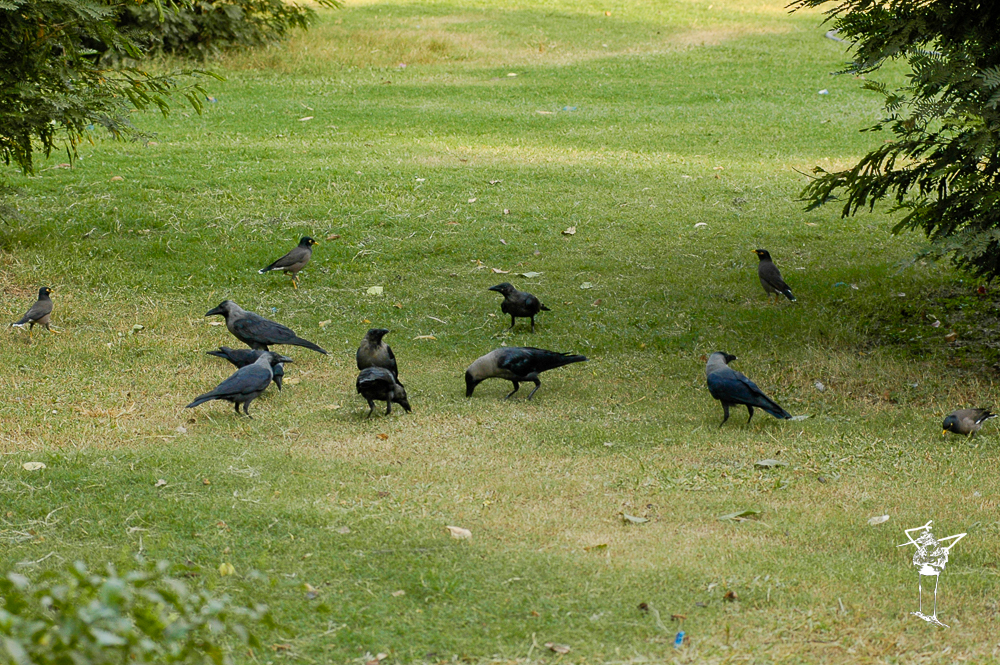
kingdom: Animalia
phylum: Chordata
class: Aves
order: Passeriformes
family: Corvidae
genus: Corvus
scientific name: Corvus splendens
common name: House crow
